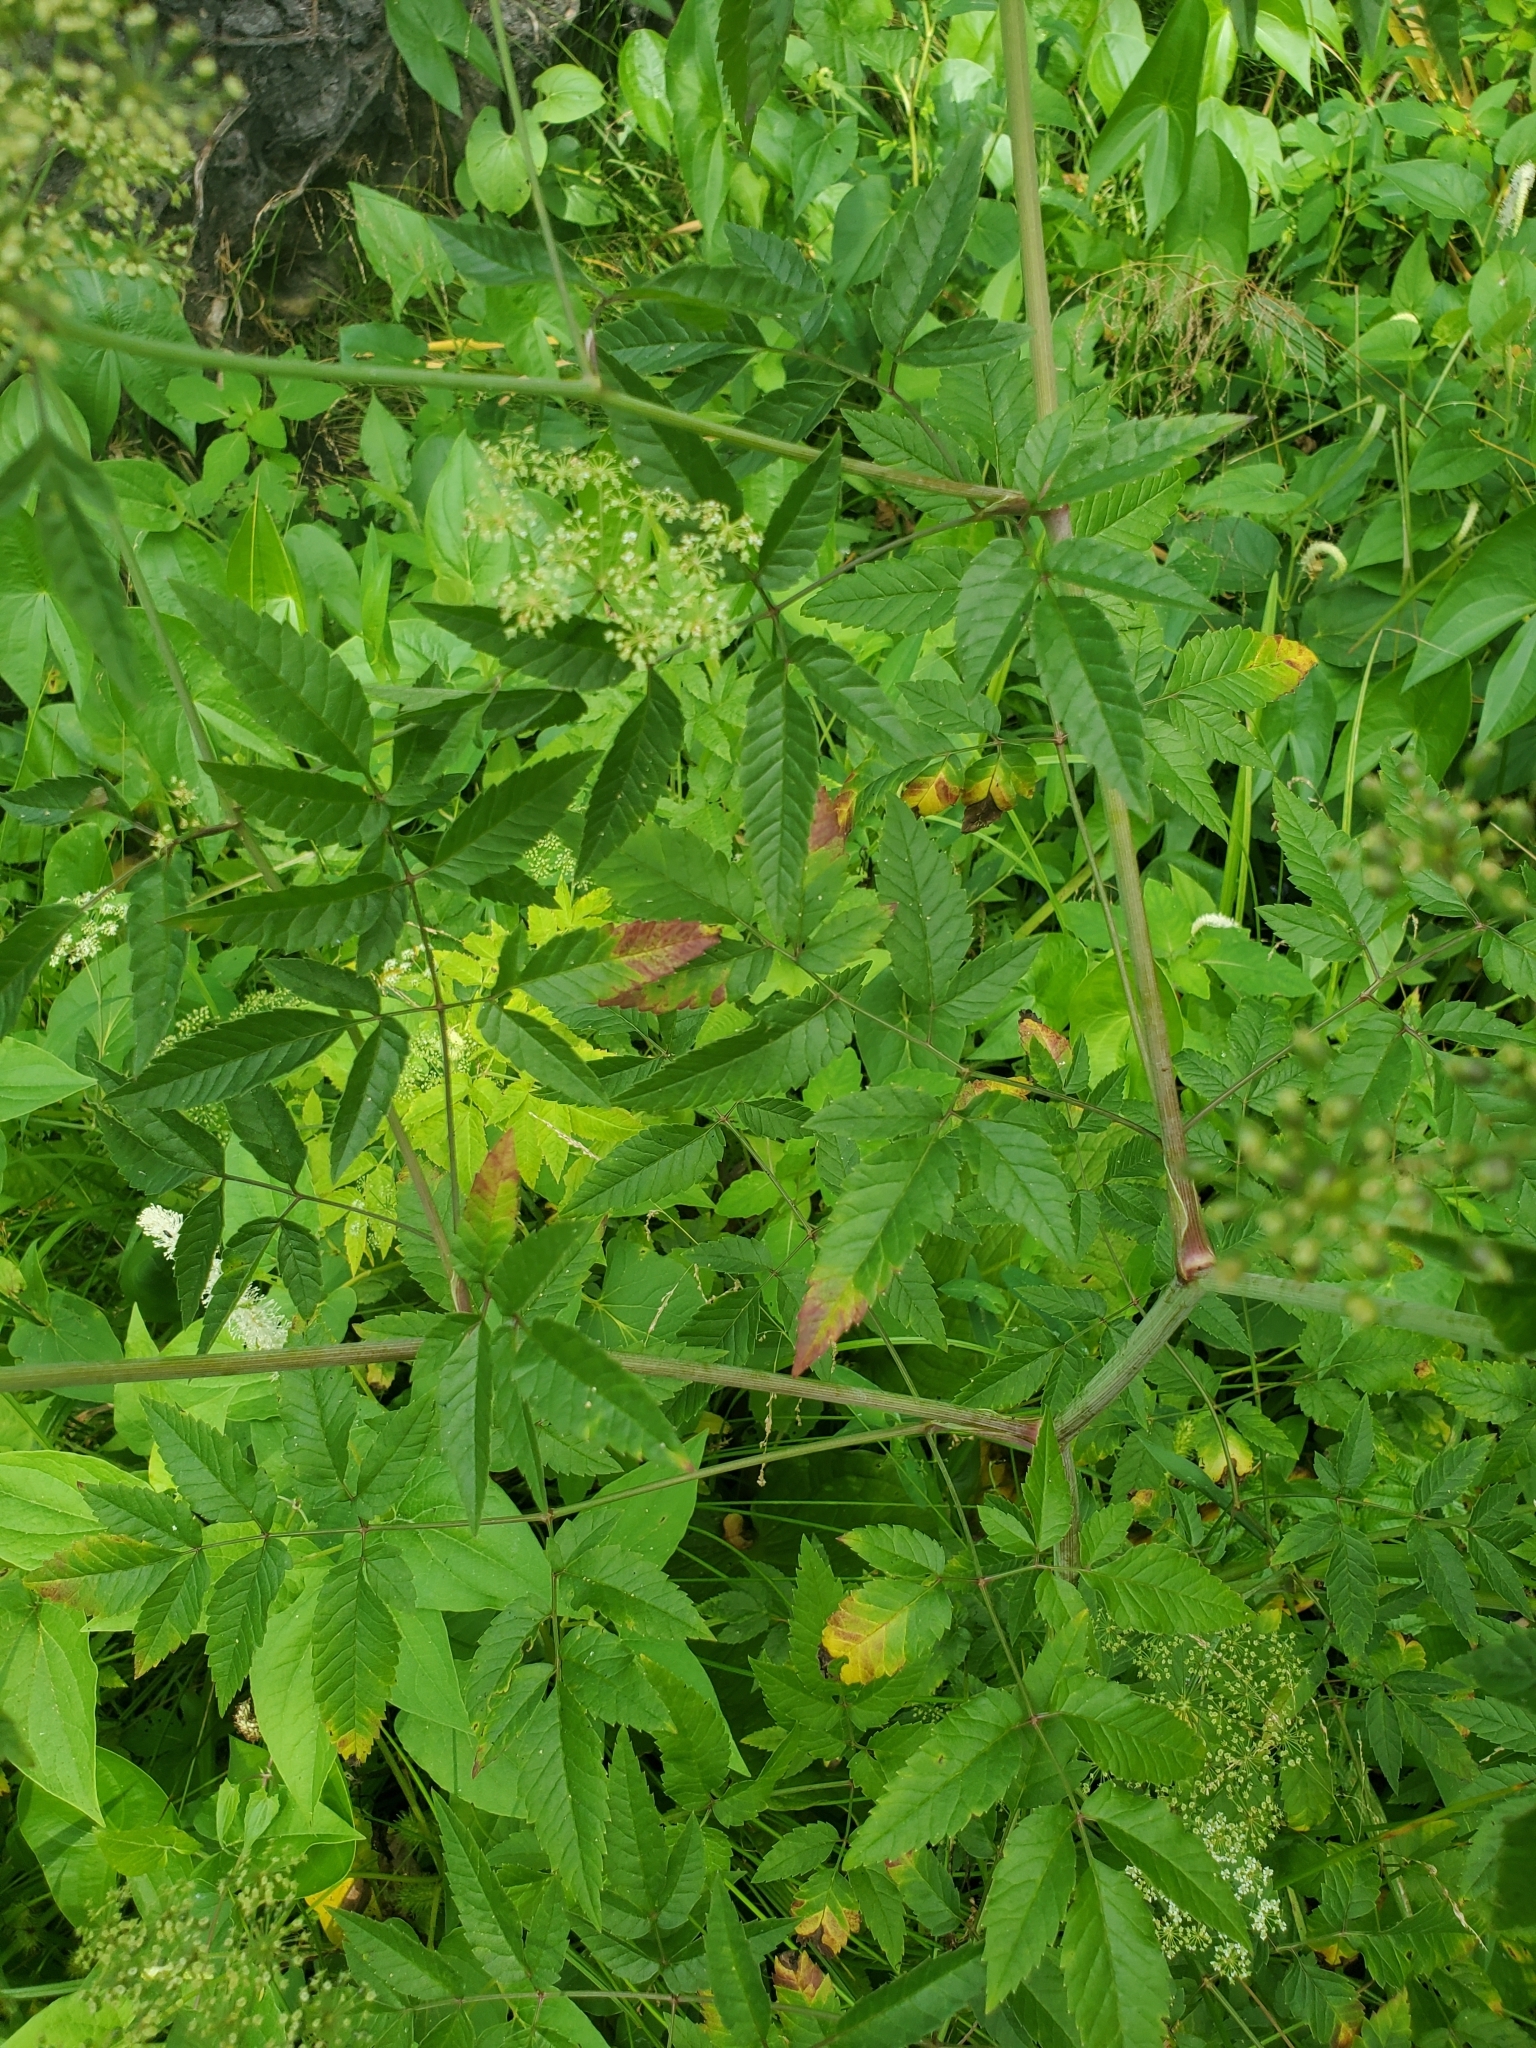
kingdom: Plantae
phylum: Tracheophyta
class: Magnoliopsida
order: Apiales
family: Apiaceae
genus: Cicuta
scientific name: Cicuta maculata
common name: Spotted cowbane
